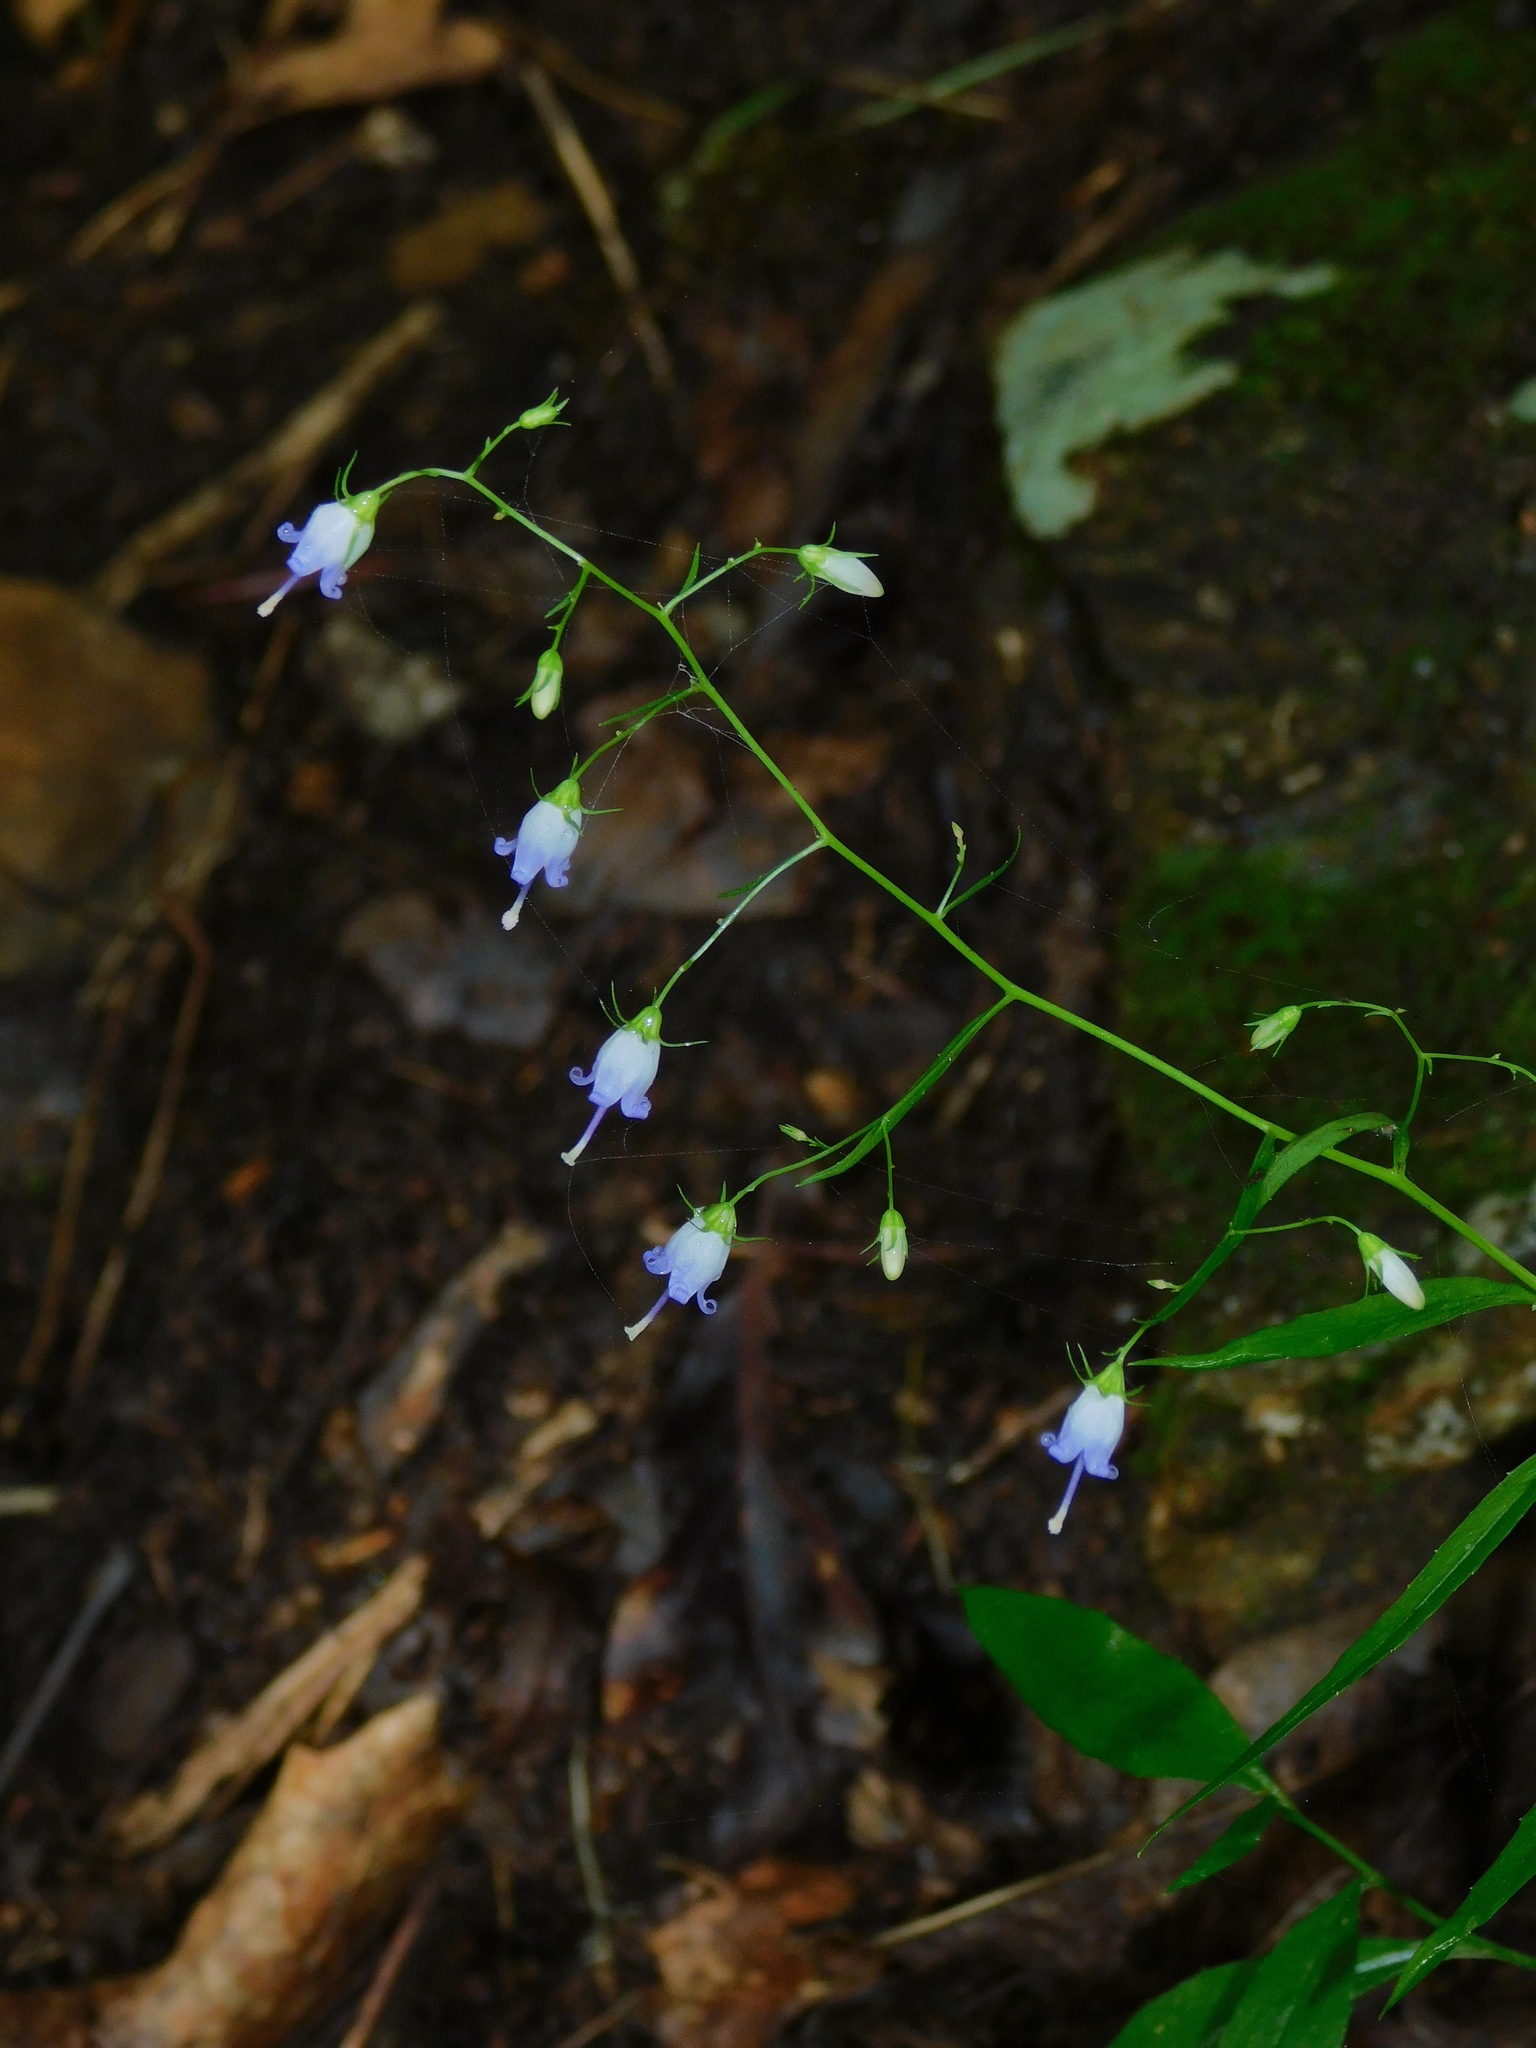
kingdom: Plantae
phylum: Tracheophyta
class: Magnoliopsida
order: Asterales
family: Campanulaceae
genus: Campanula
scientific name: Campanula divaricata
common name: Appalachian bellflower
